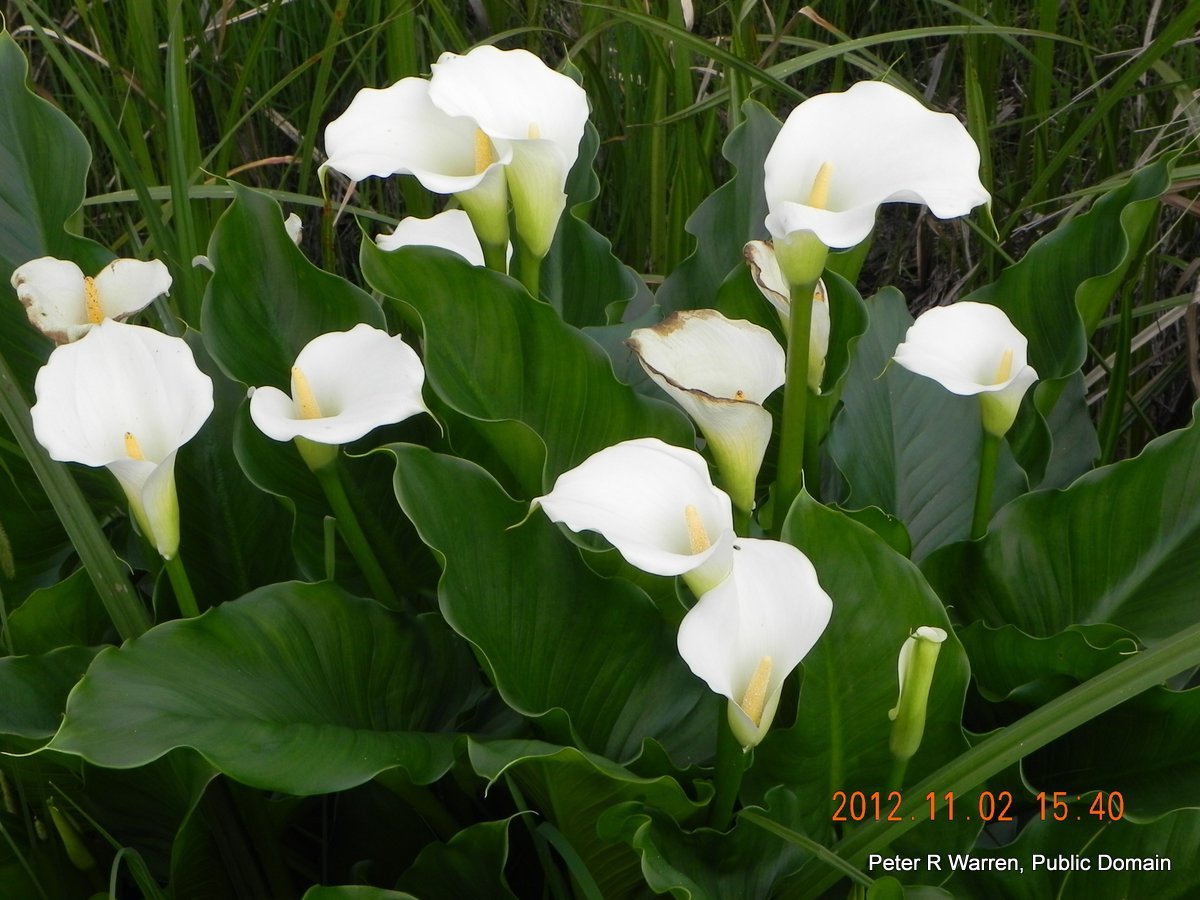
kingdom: Plantae
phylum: Tracheophyta
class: Liliopsida
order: Alismatales
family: Araceae
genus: Zantedeschia
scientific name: Zantedeschia aethiopica
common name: Altar-lily
